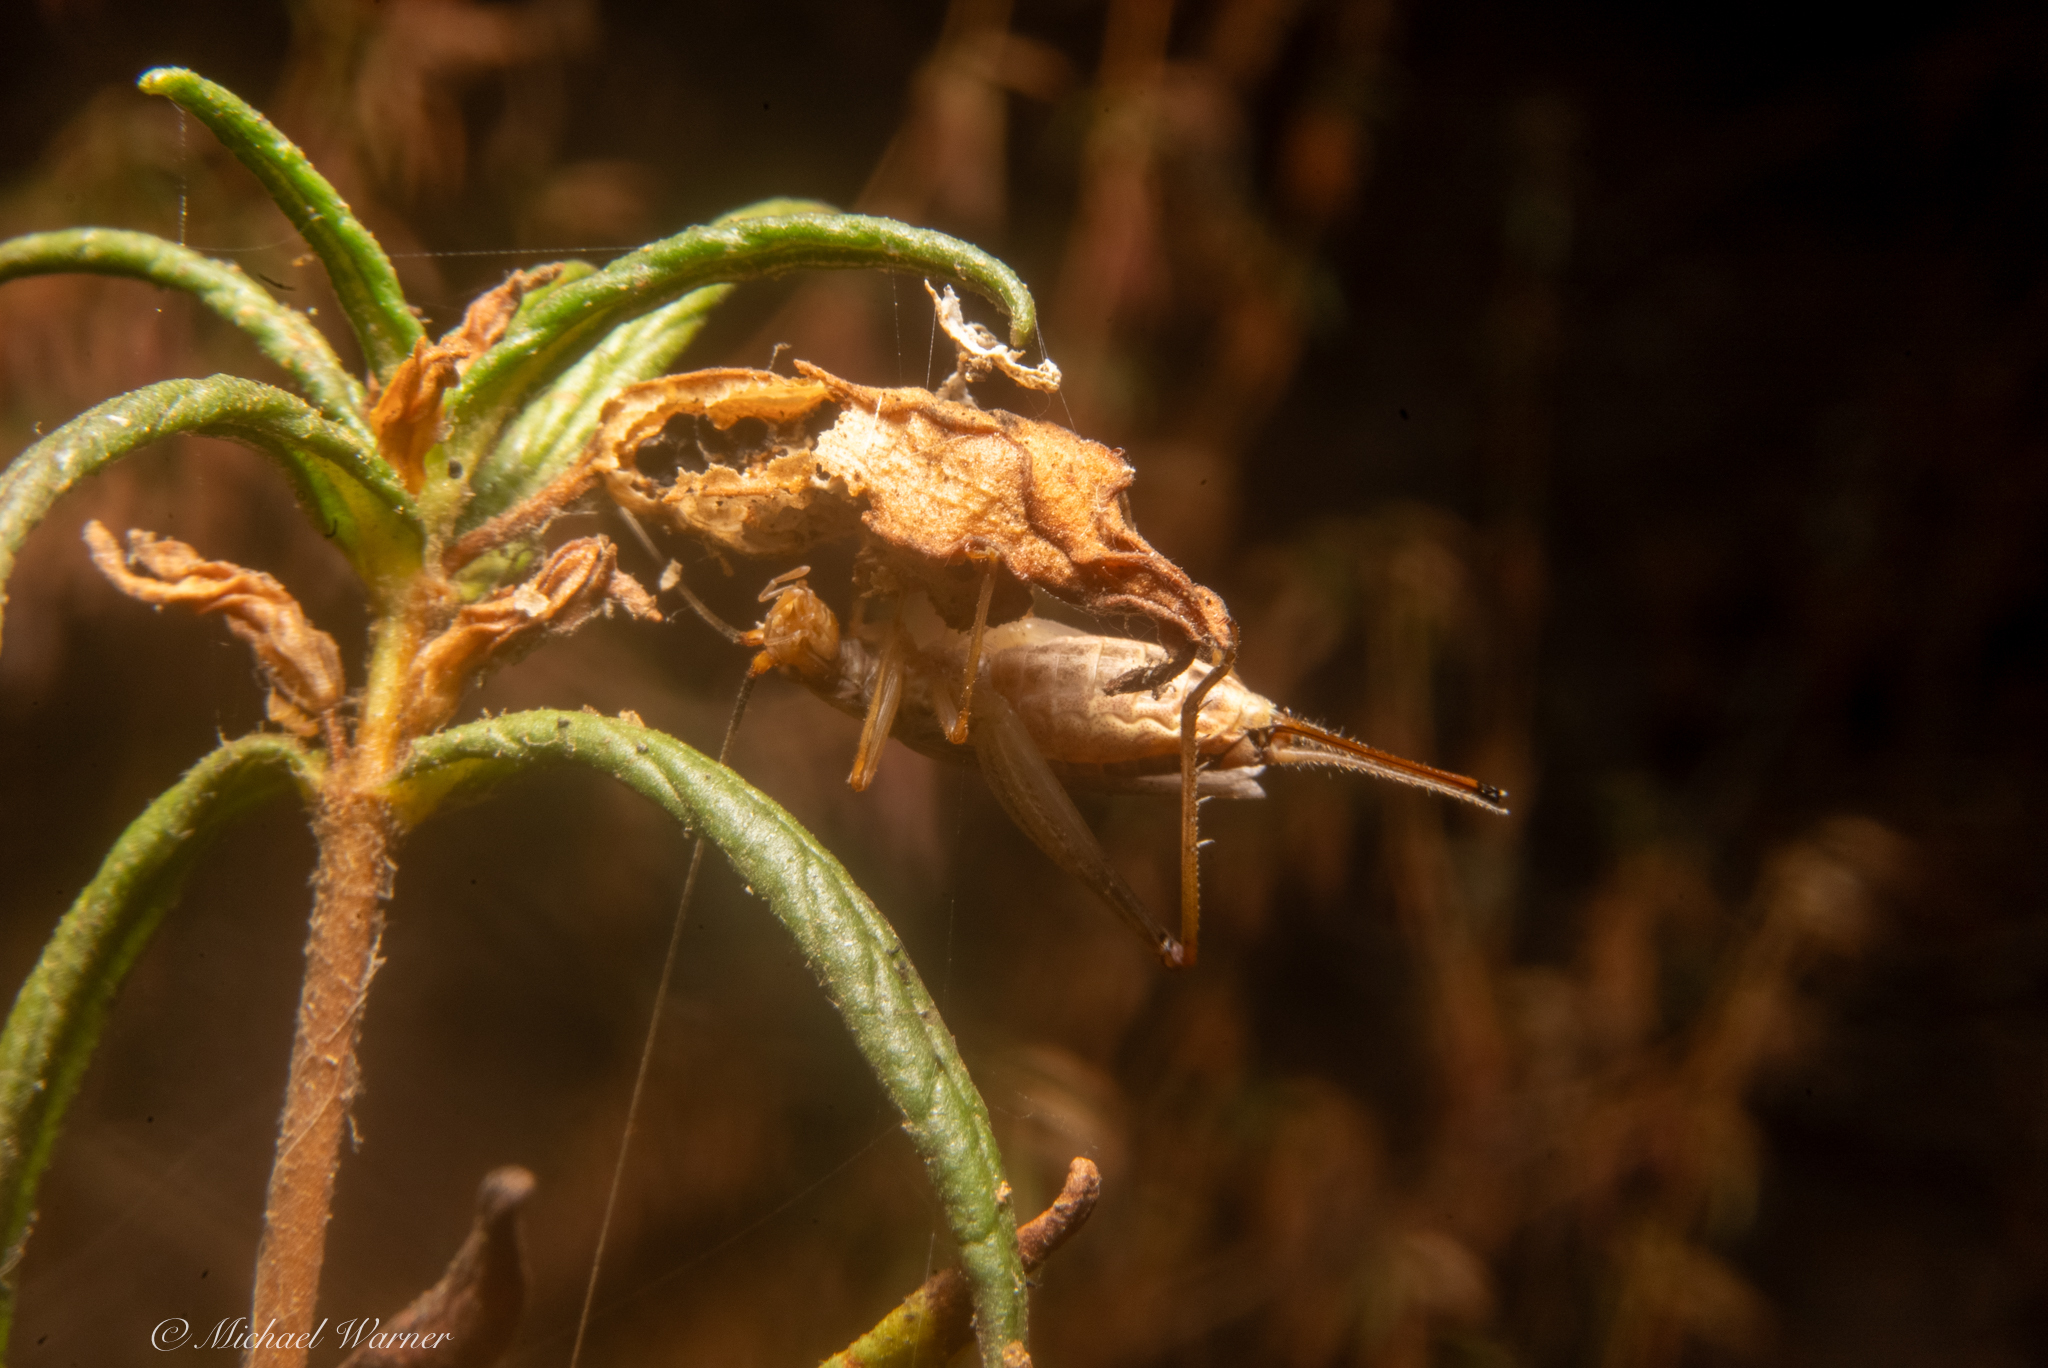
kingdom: Animalia
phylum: Arthropoda
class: Insecta
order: Orthoptera
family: Gryllidae
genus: Oecanthus
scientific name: Oecanthus californicus
